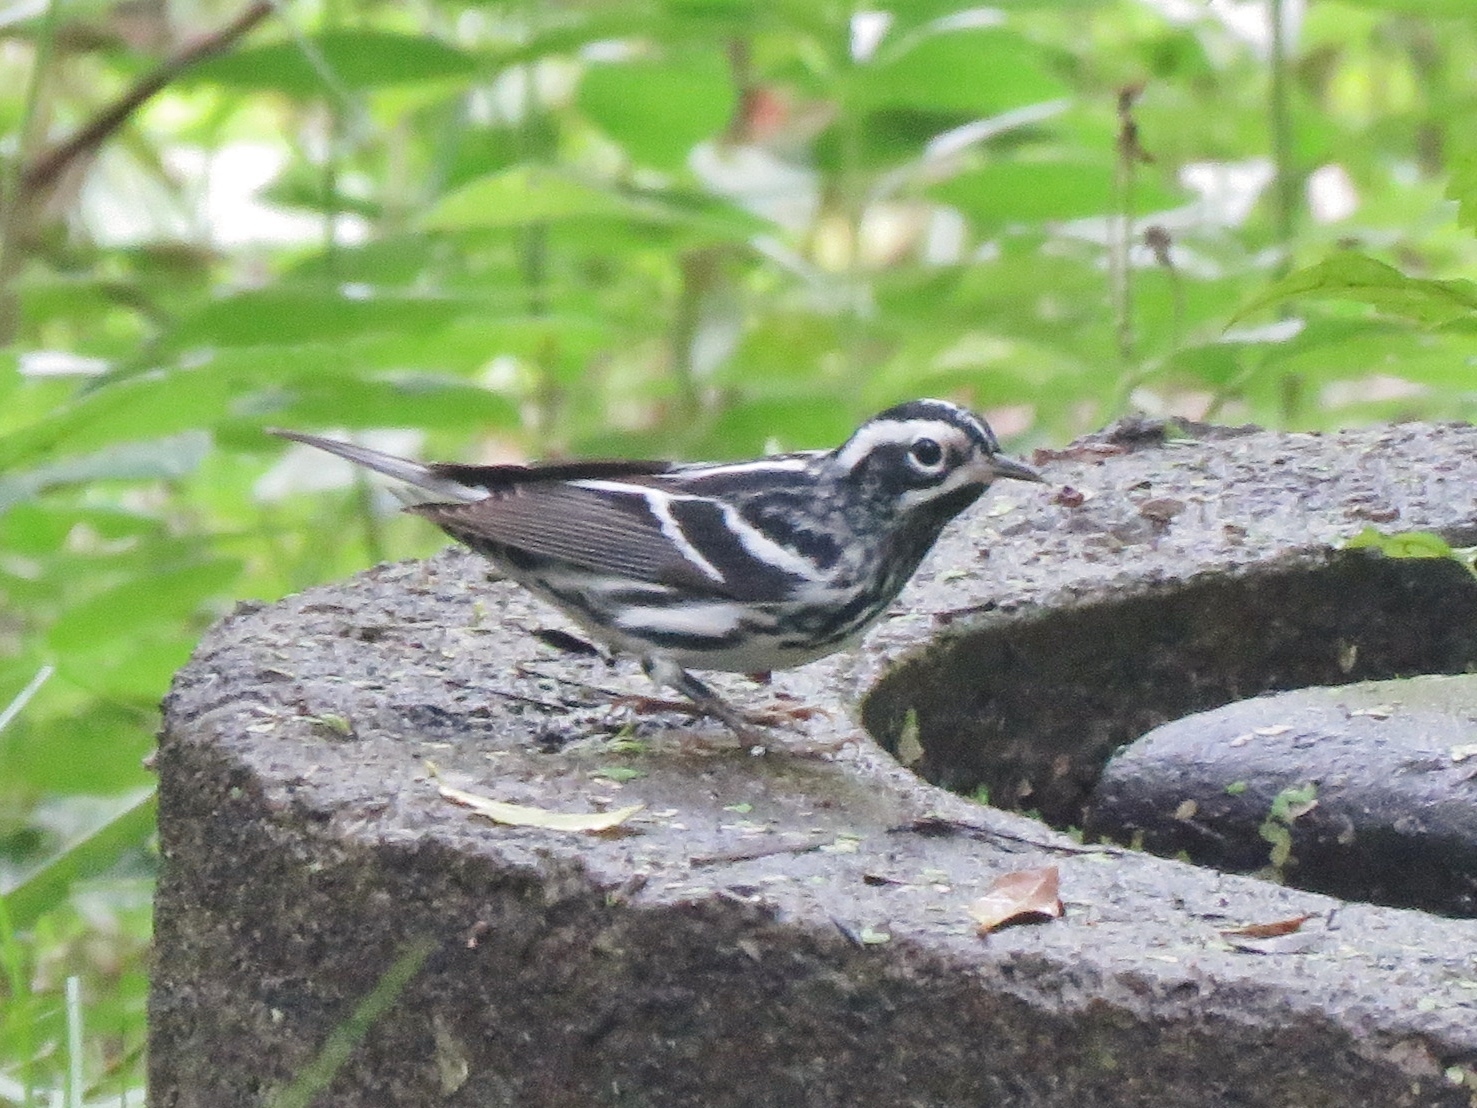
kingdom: Animalia
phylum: Chordata
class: Aves
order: Passeriformes
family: Parulidae
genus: Mniotilta
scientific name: Mniotilta varia
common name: Black-and-white warbler
